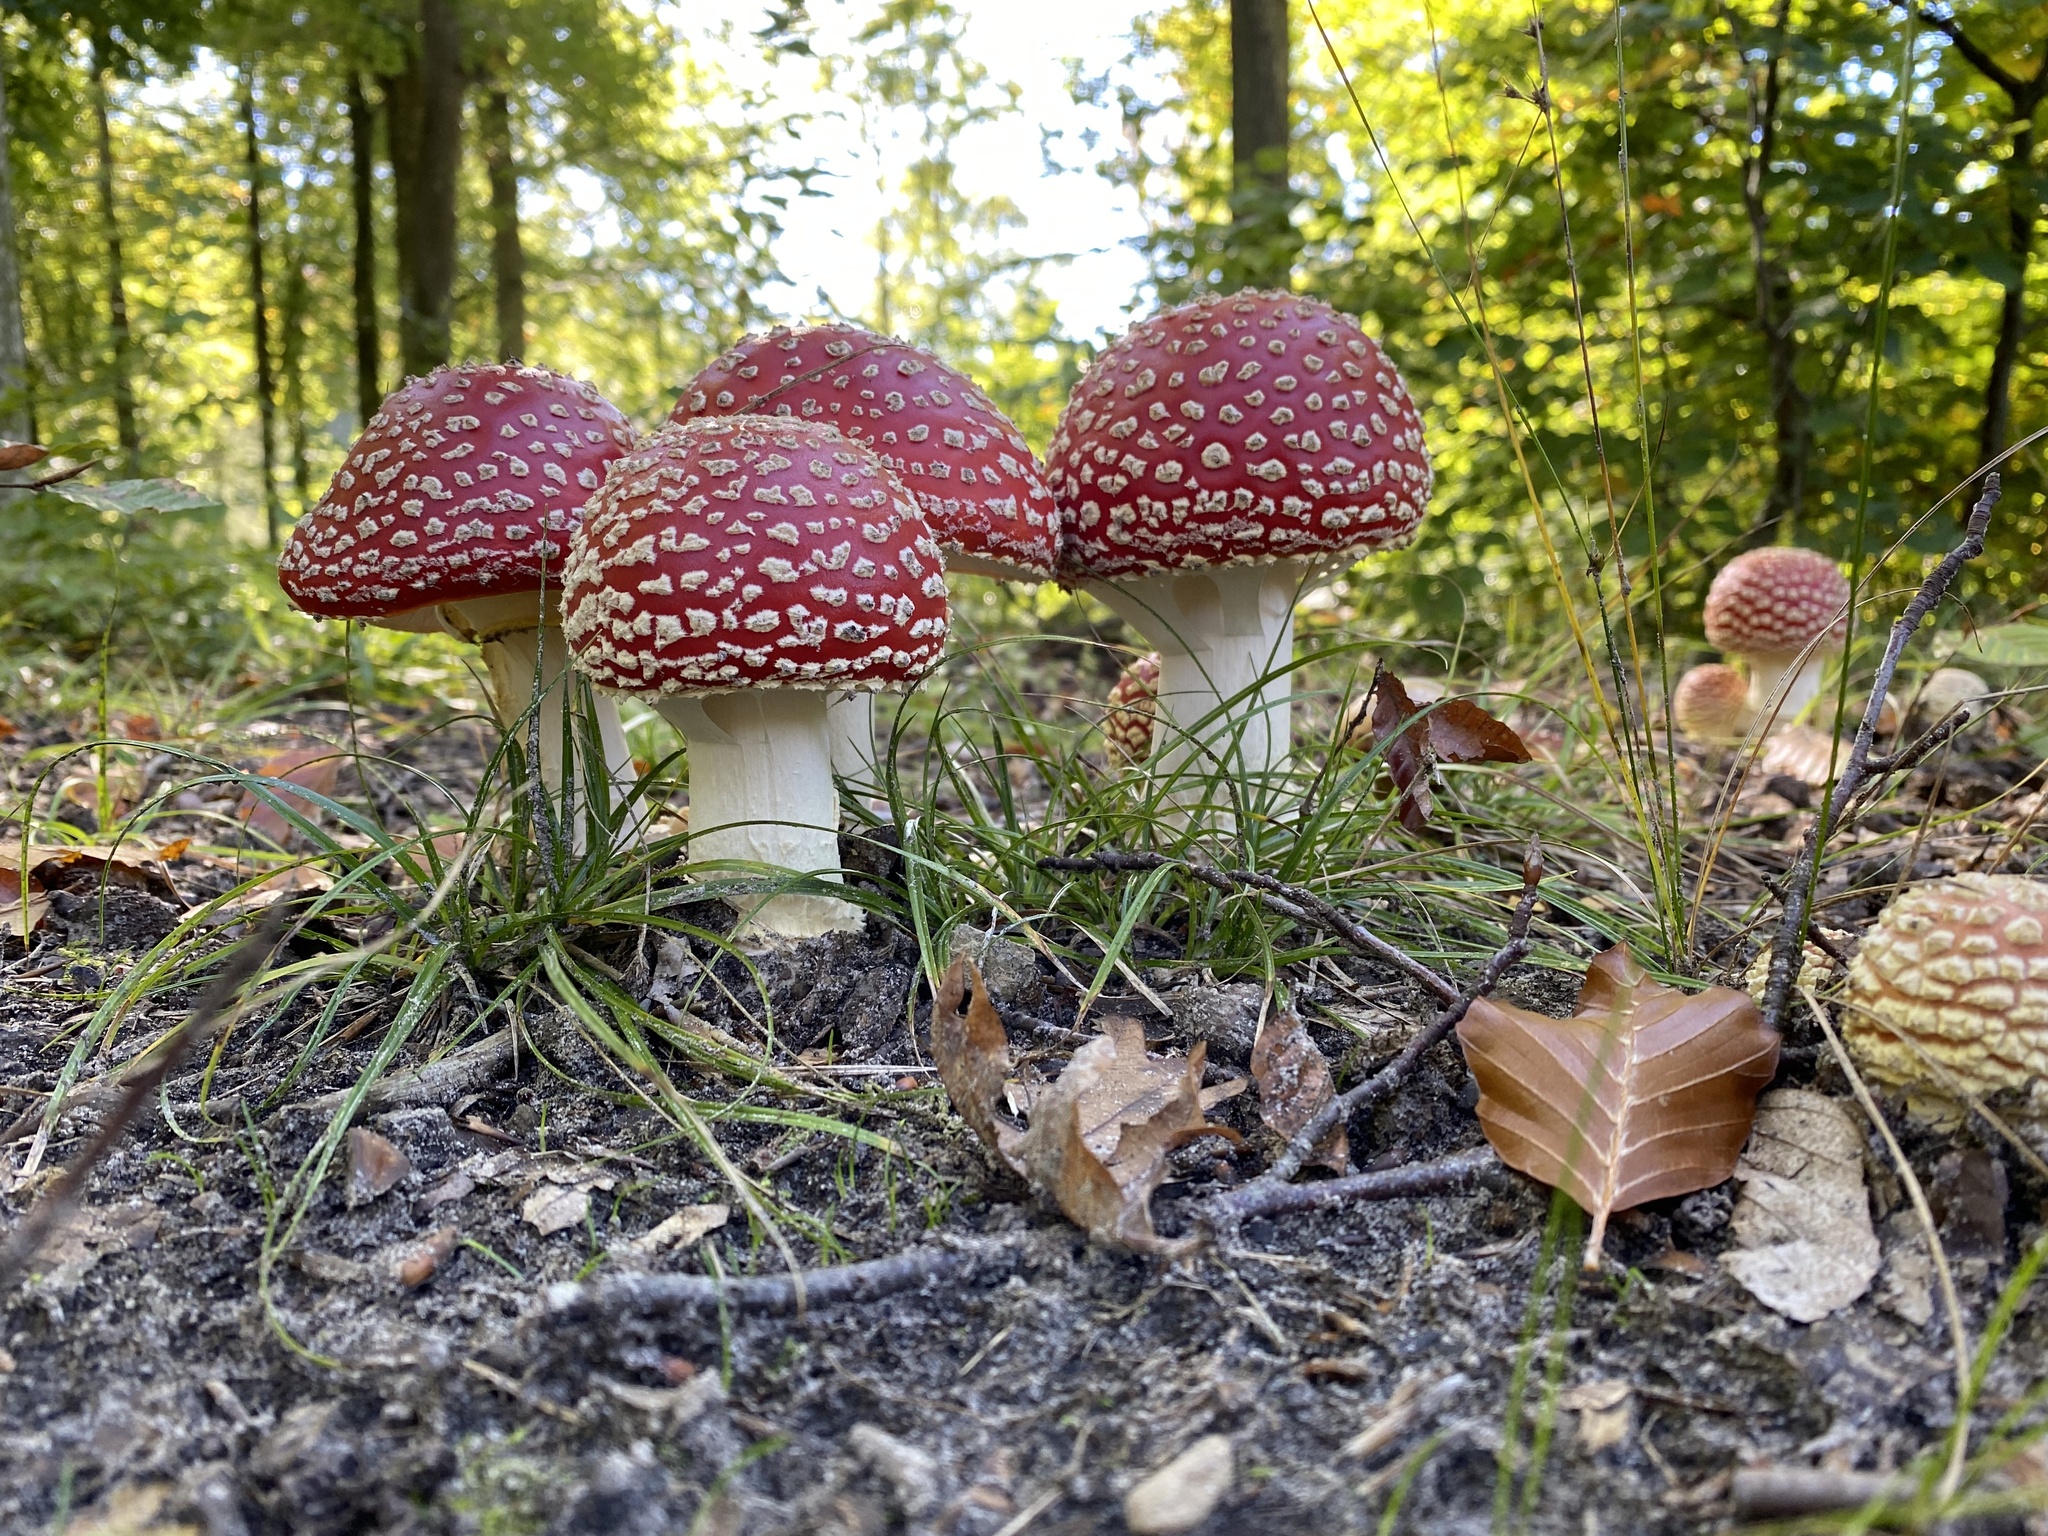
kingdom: Fungi
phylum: Basidiomycota
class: Agaricomycetes
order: Agaricales
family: Amanitaceae
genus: Amanita
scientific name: Amanita muscaria
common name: Fly agaric
